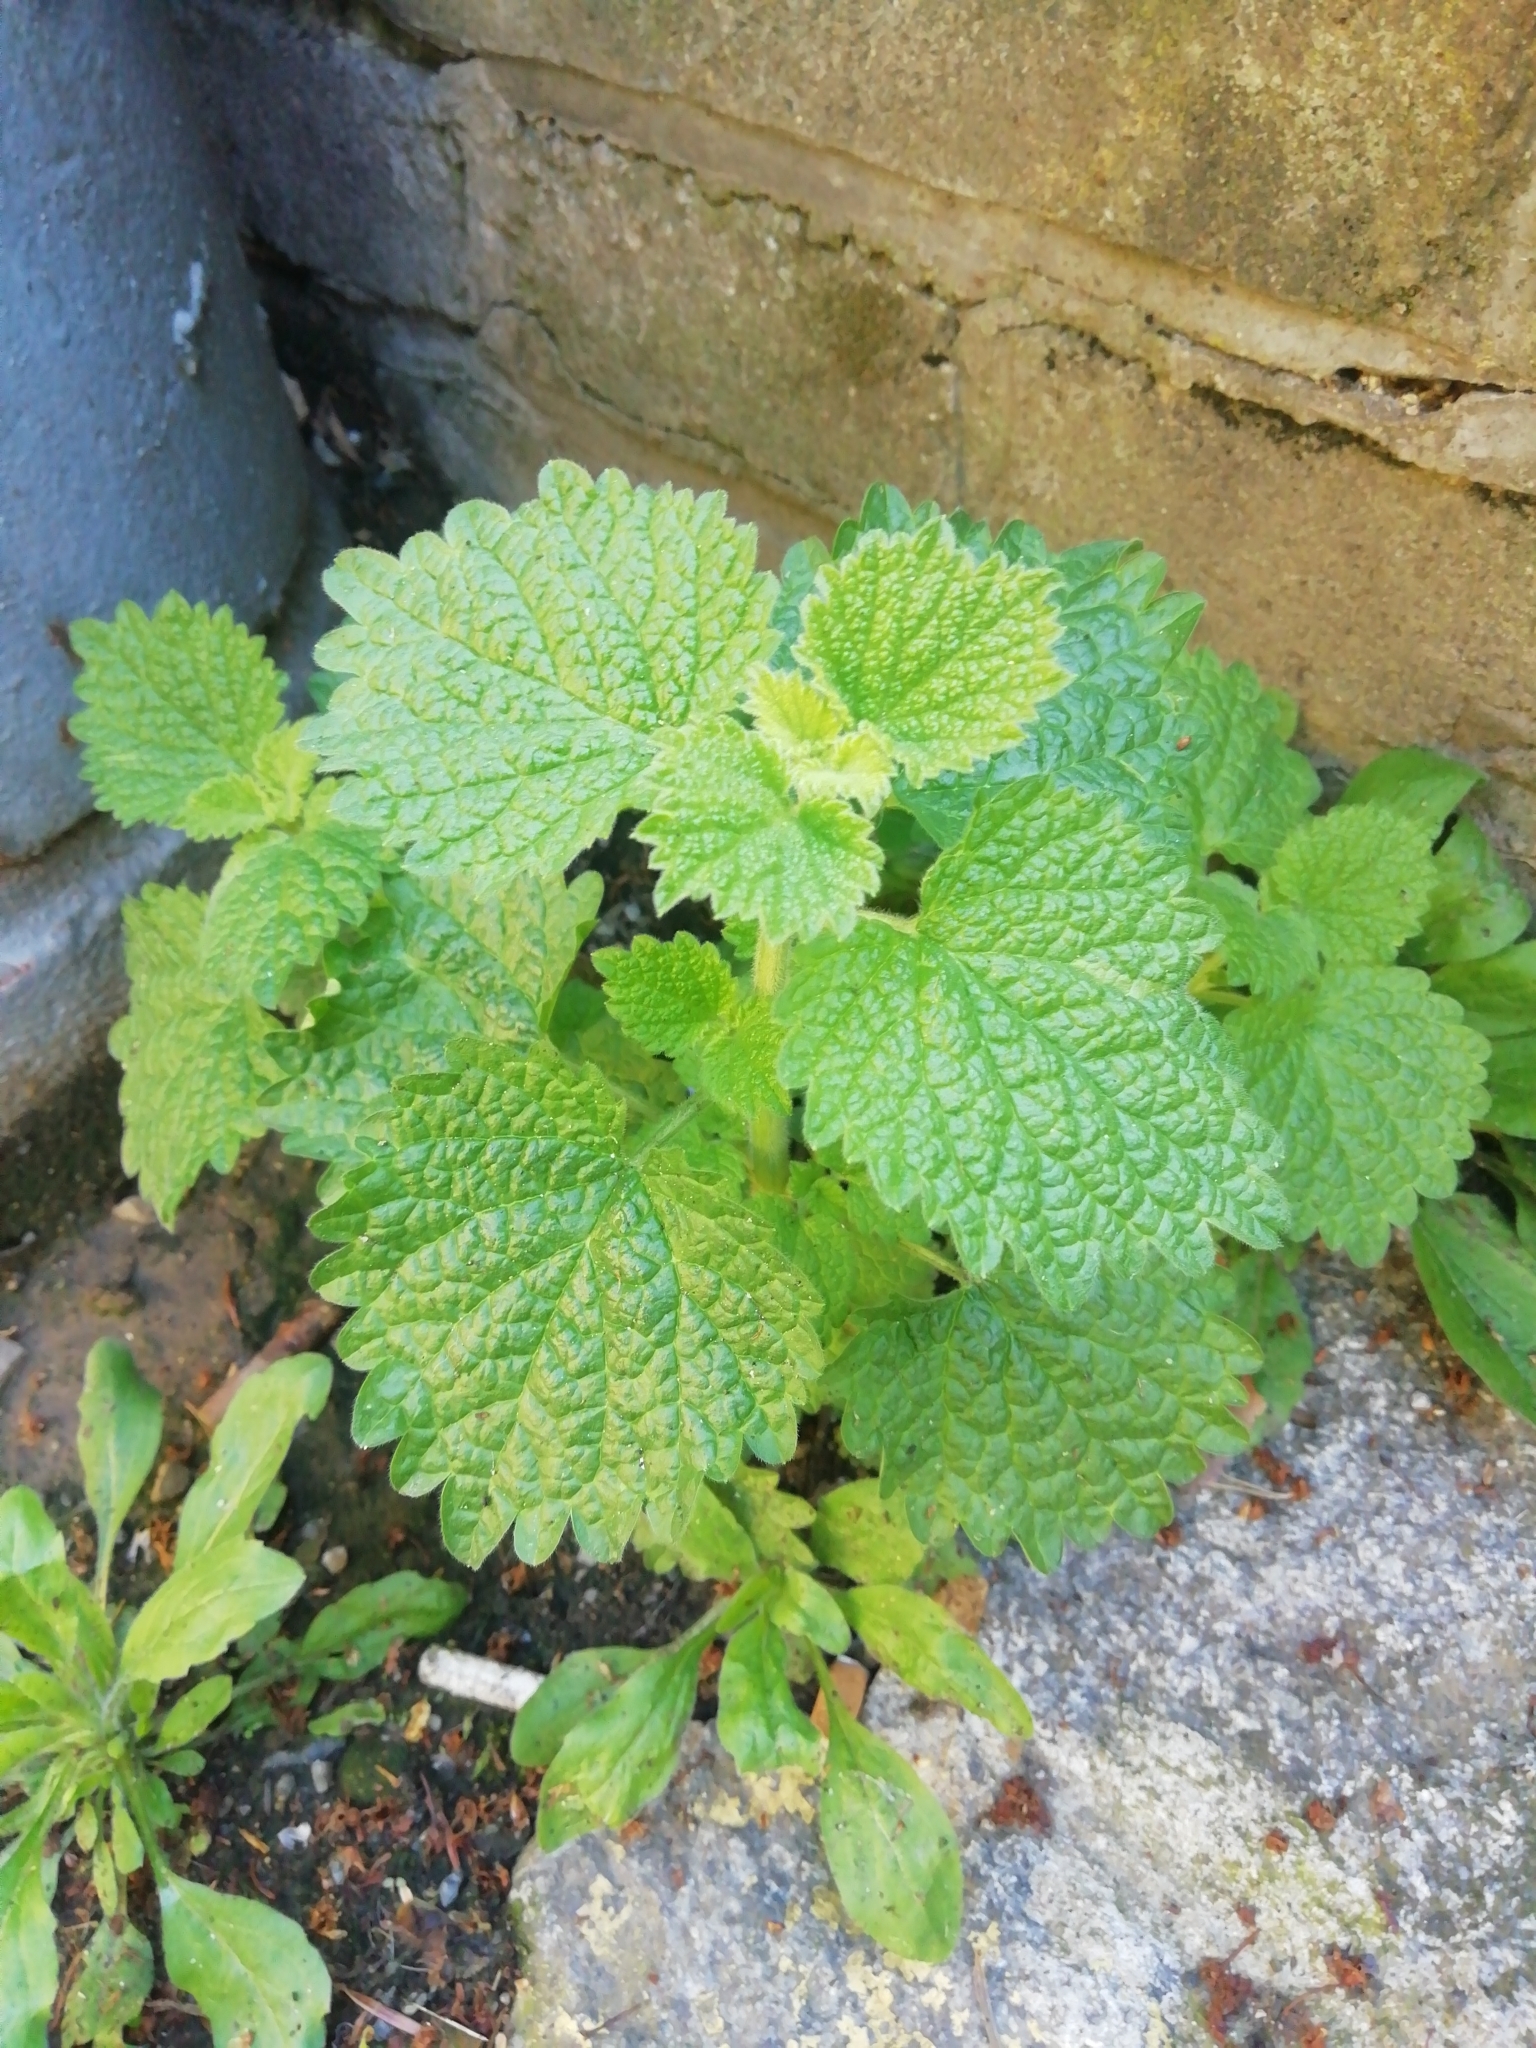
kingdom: Plantae
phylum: Tracheophyta
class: Magnoliopsida
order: Lamiales
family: Lamiaceae
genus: Ballota
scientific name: Ballota nigra
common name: Black horehound
